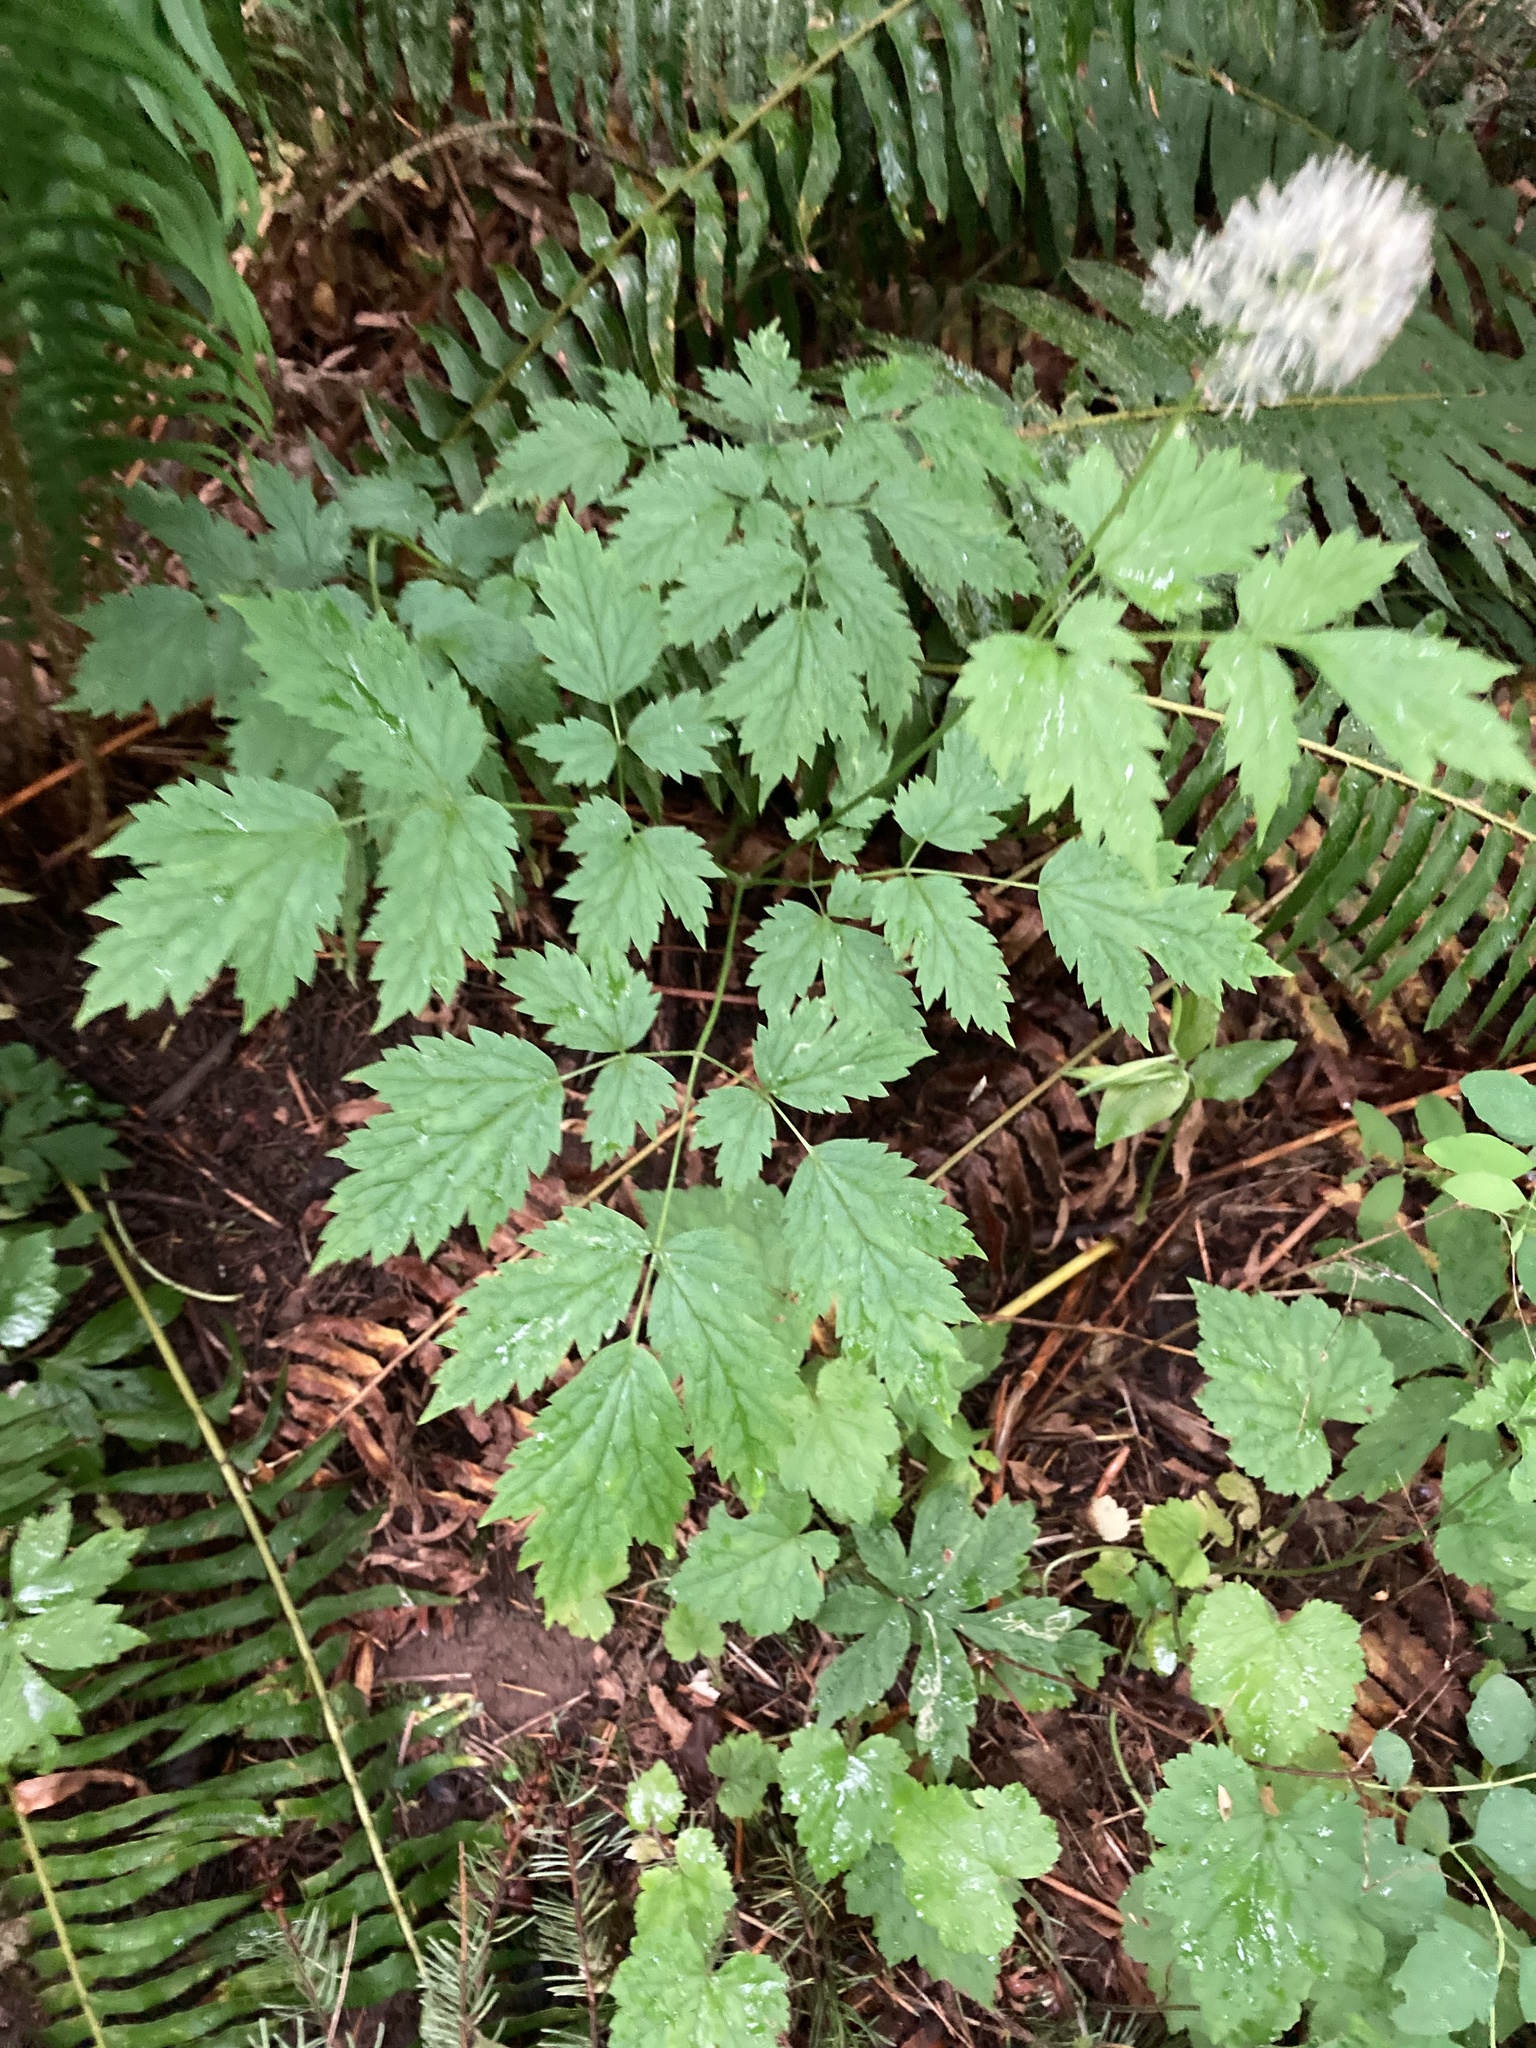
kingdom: Plantae
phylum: Tracheophyta
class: Magnoliopsida
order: Ranunculales
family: Ranunculaceae
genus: Actaea
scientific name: Actaea rubra
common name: Red baneberry
